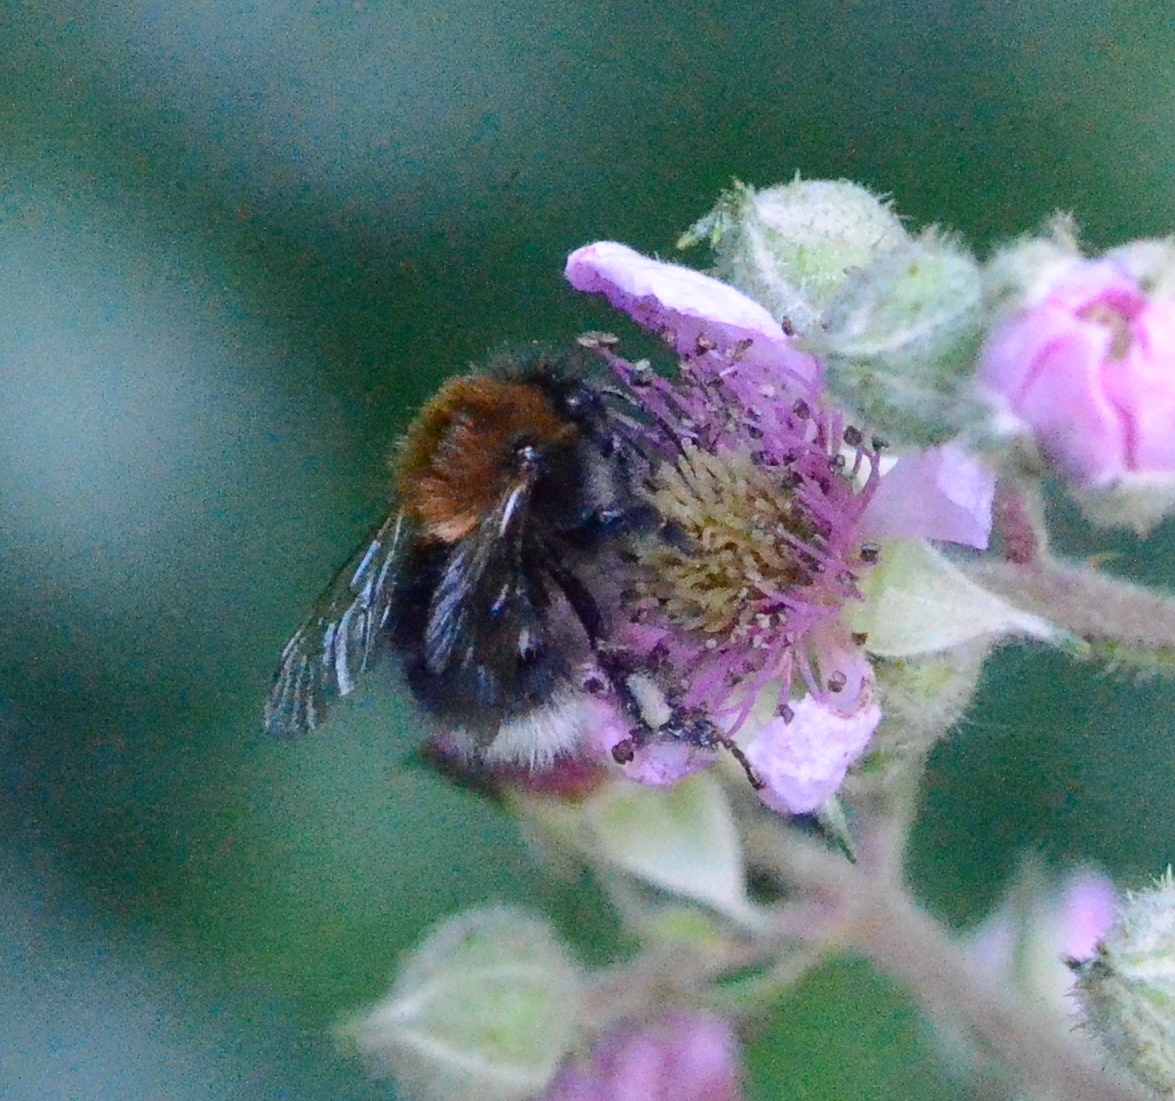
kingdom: Animalia
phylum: Arthropoda
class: Insecta
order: Hymenoptera
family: Apidae
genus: Bombus
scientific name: Bombus hypnorum
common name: New garden bumblebee
